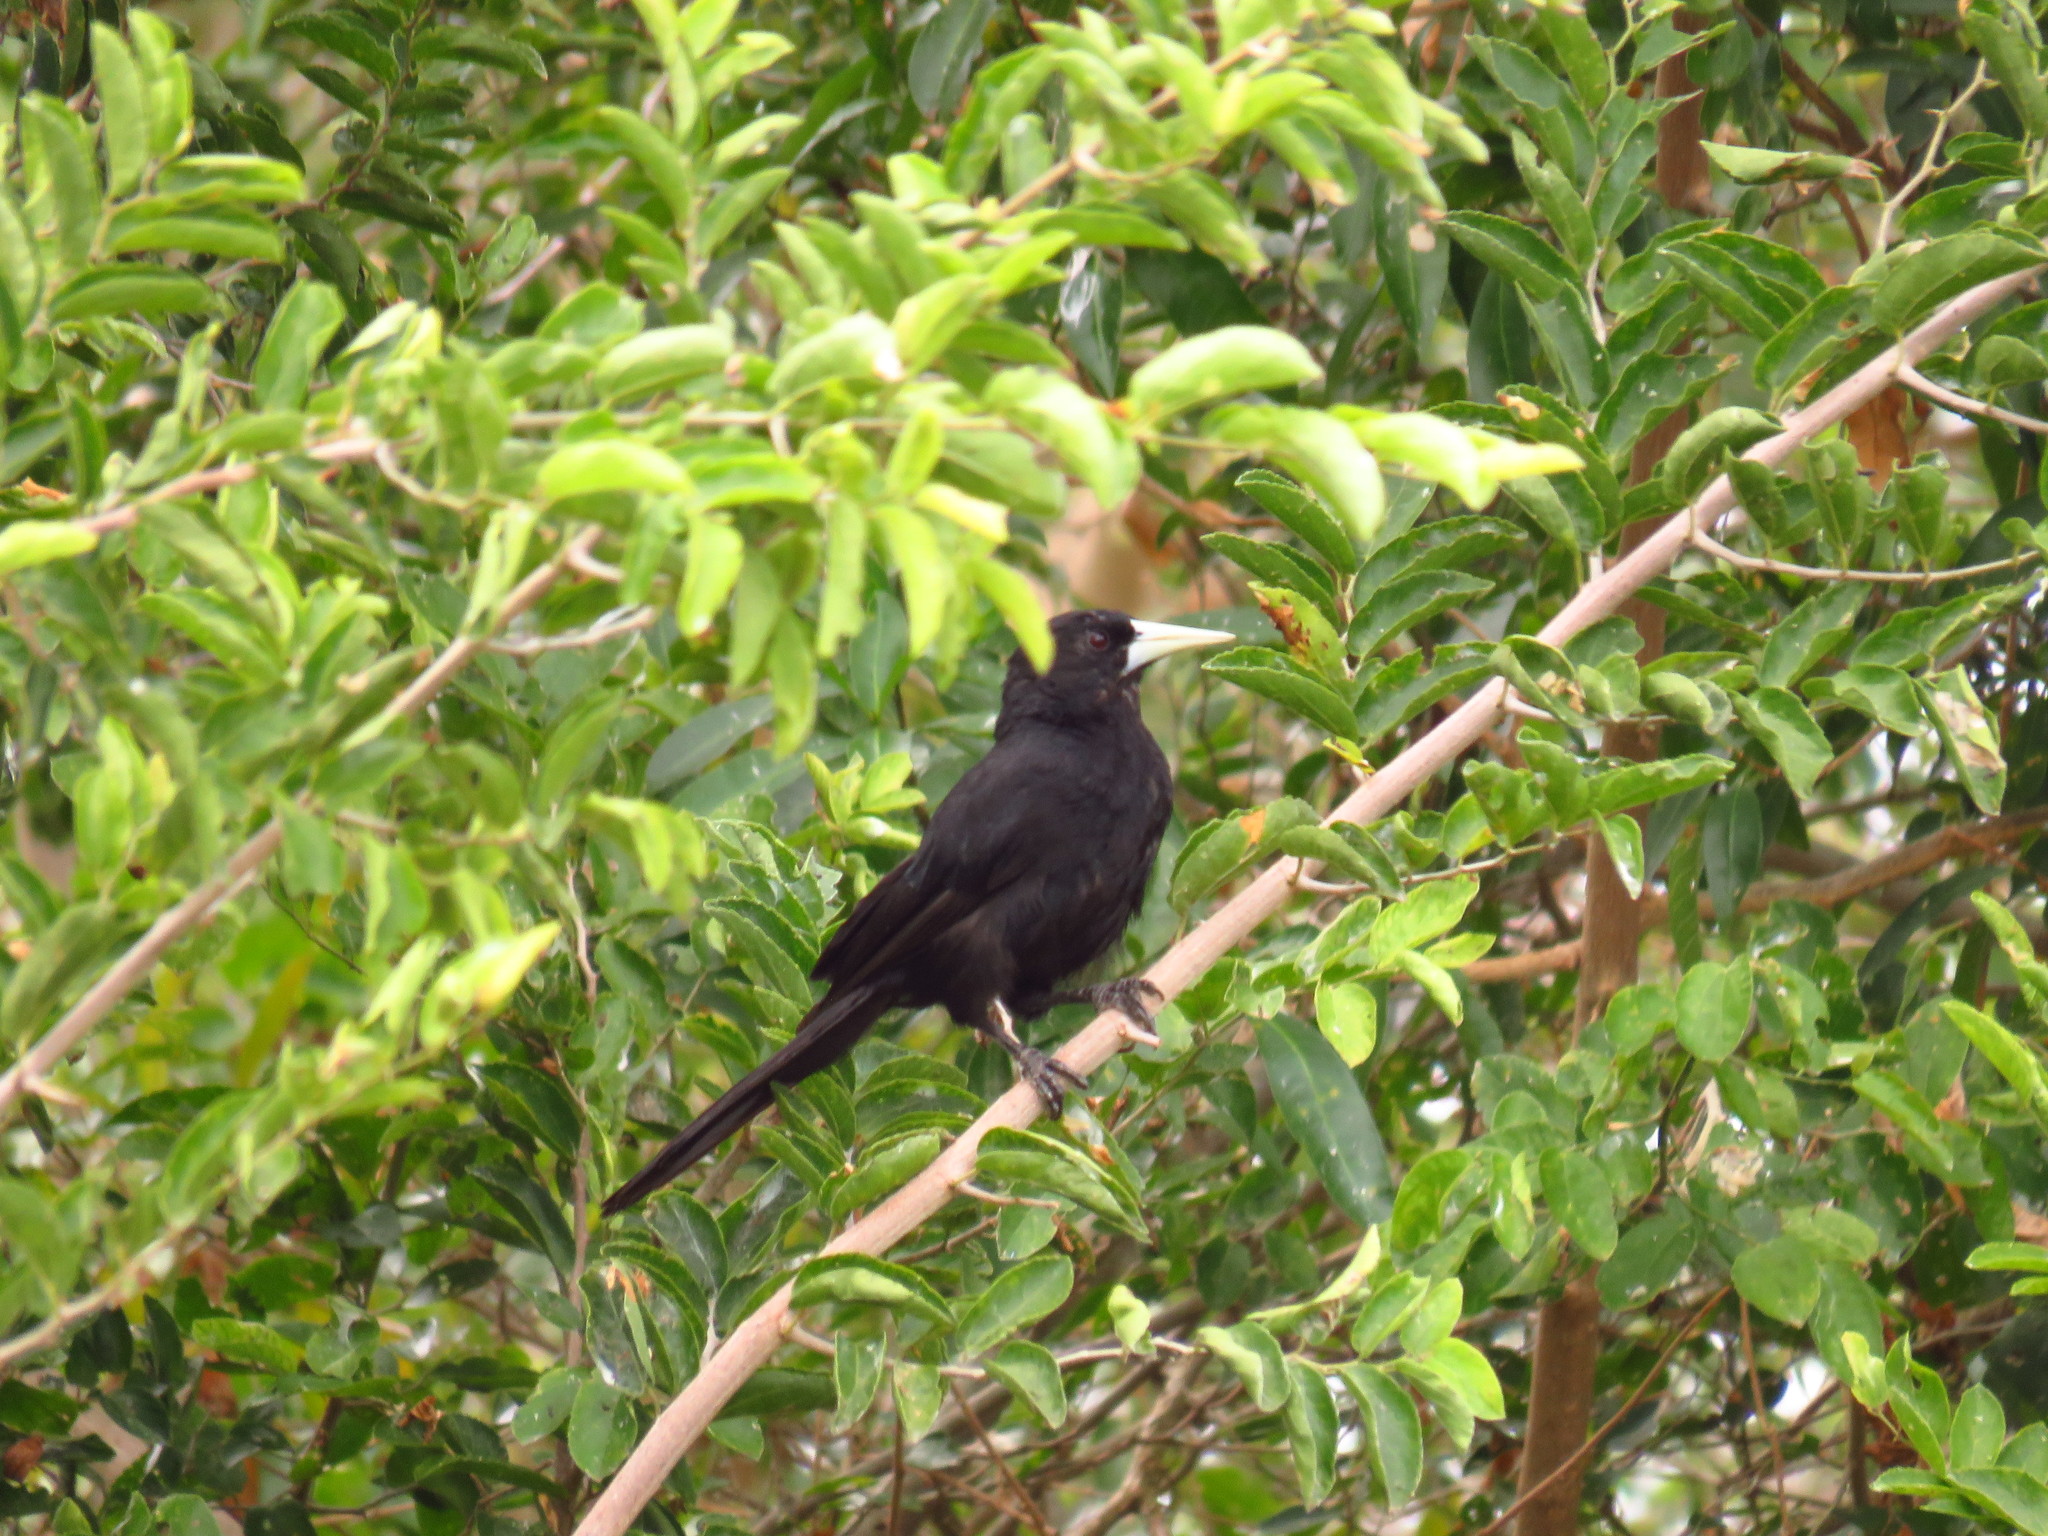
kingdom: Animalia
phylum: Chordata
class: Aves
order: Passeriformes
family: Icteridae
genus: Cacicus
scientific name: Cacicus solitarius
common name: Solitary cacique
